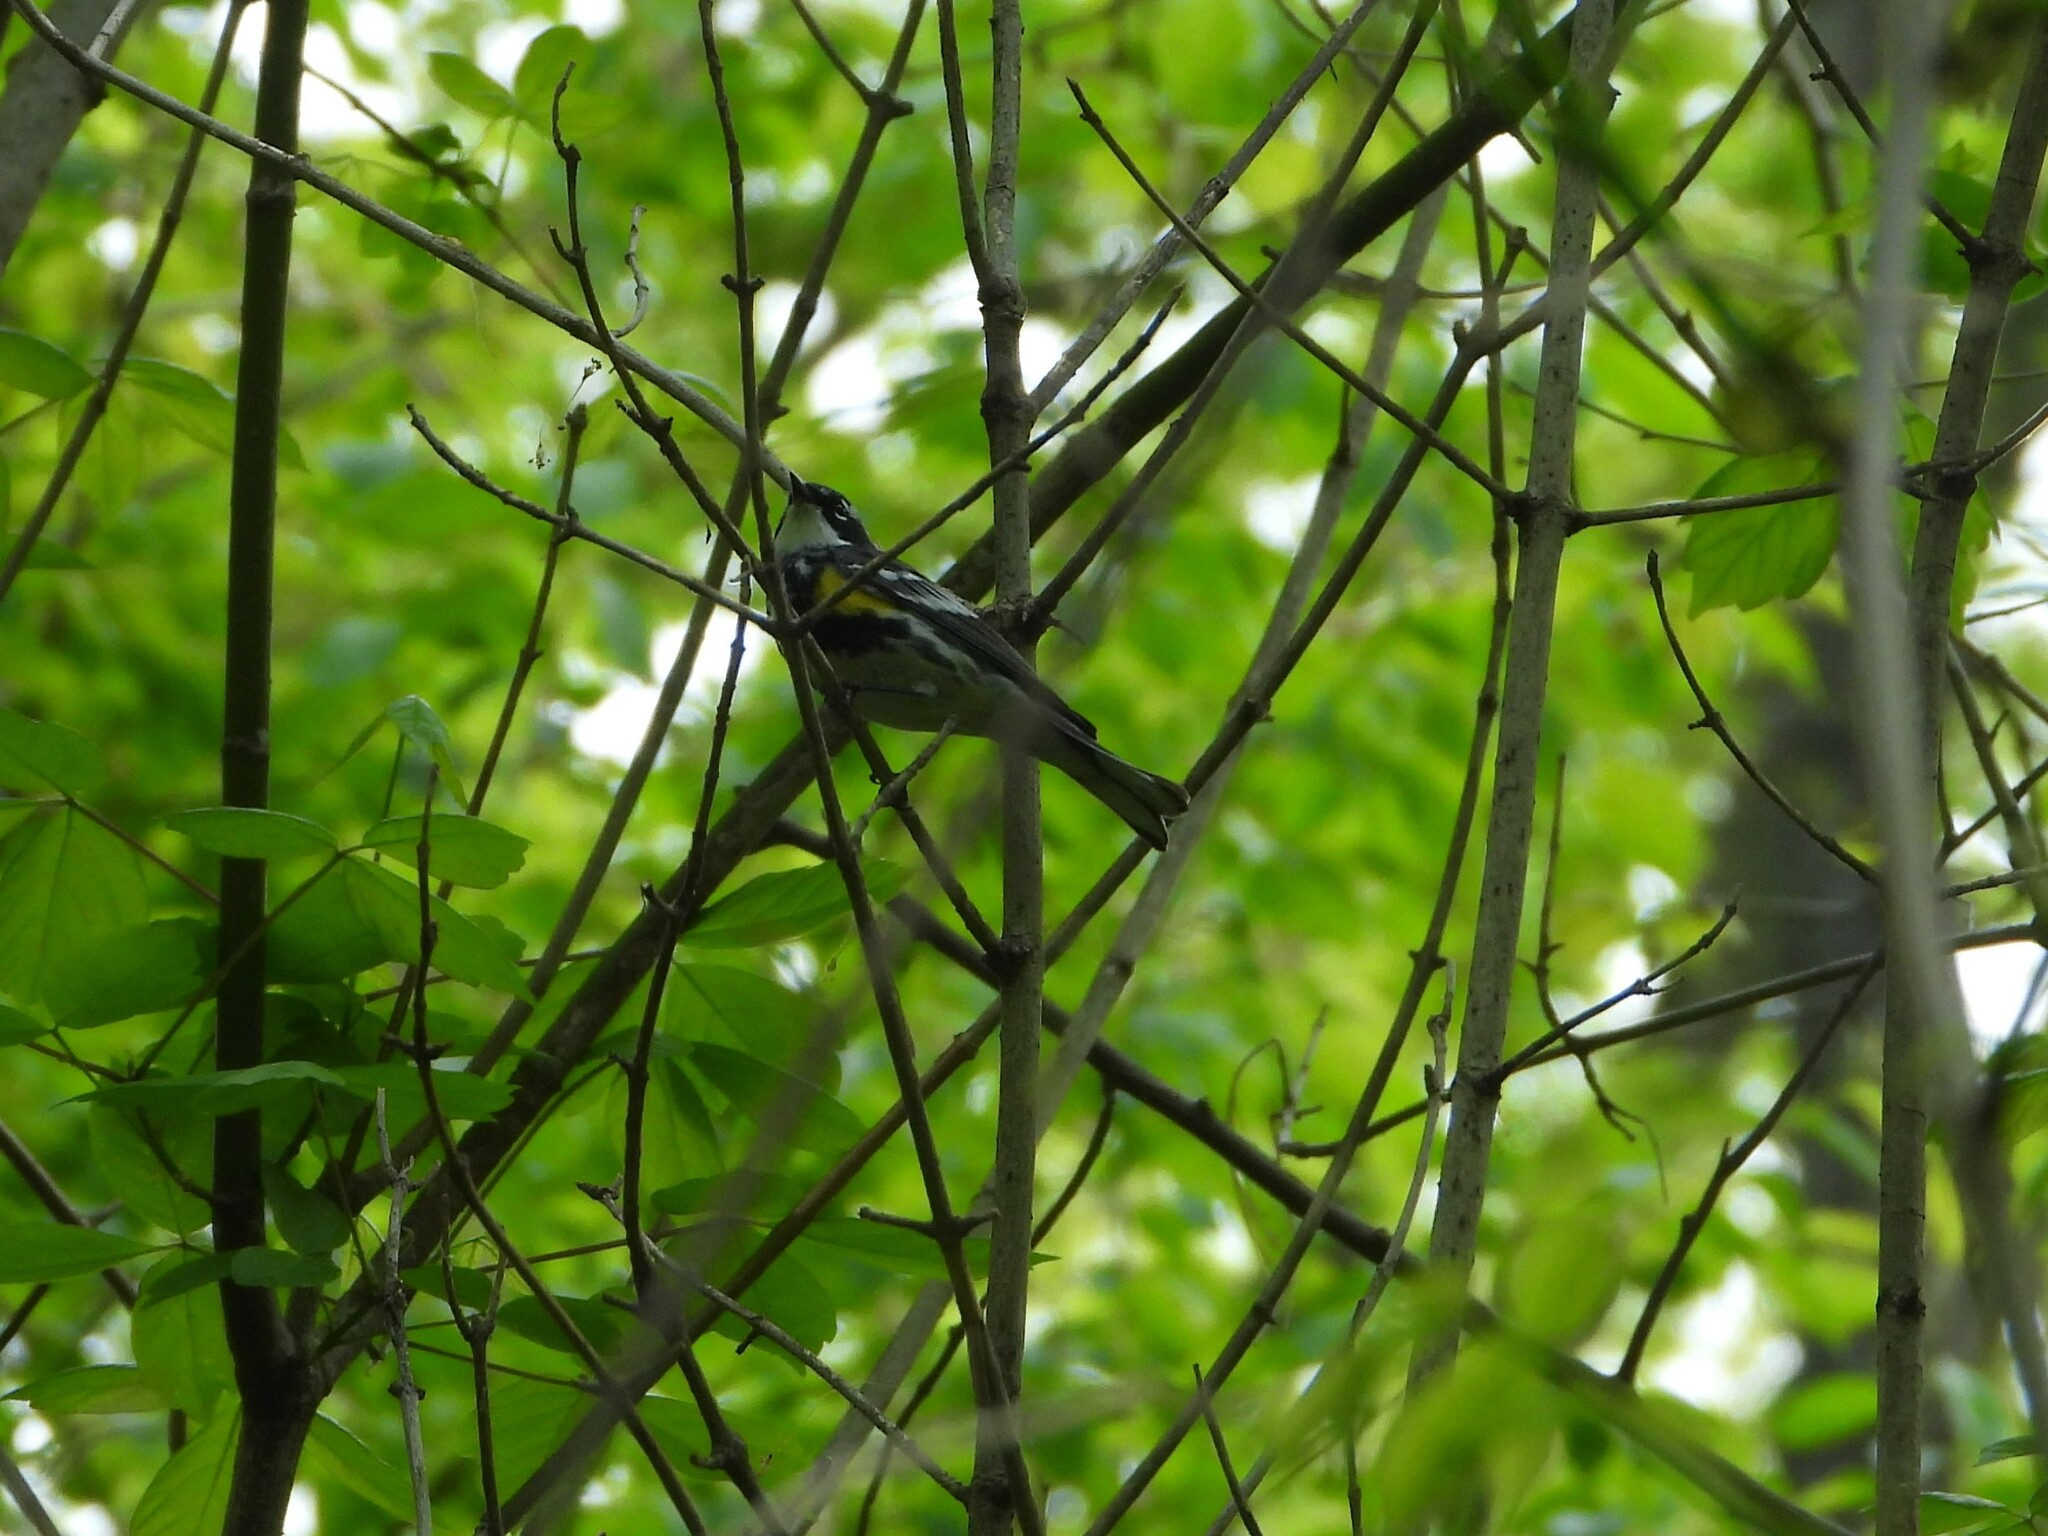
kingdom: Animalia
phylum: Chordata
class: Aves
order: Passeriformes
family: Parulidae
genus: Setophaga
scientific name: Setophaga coronata
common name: Myrtle warbler
